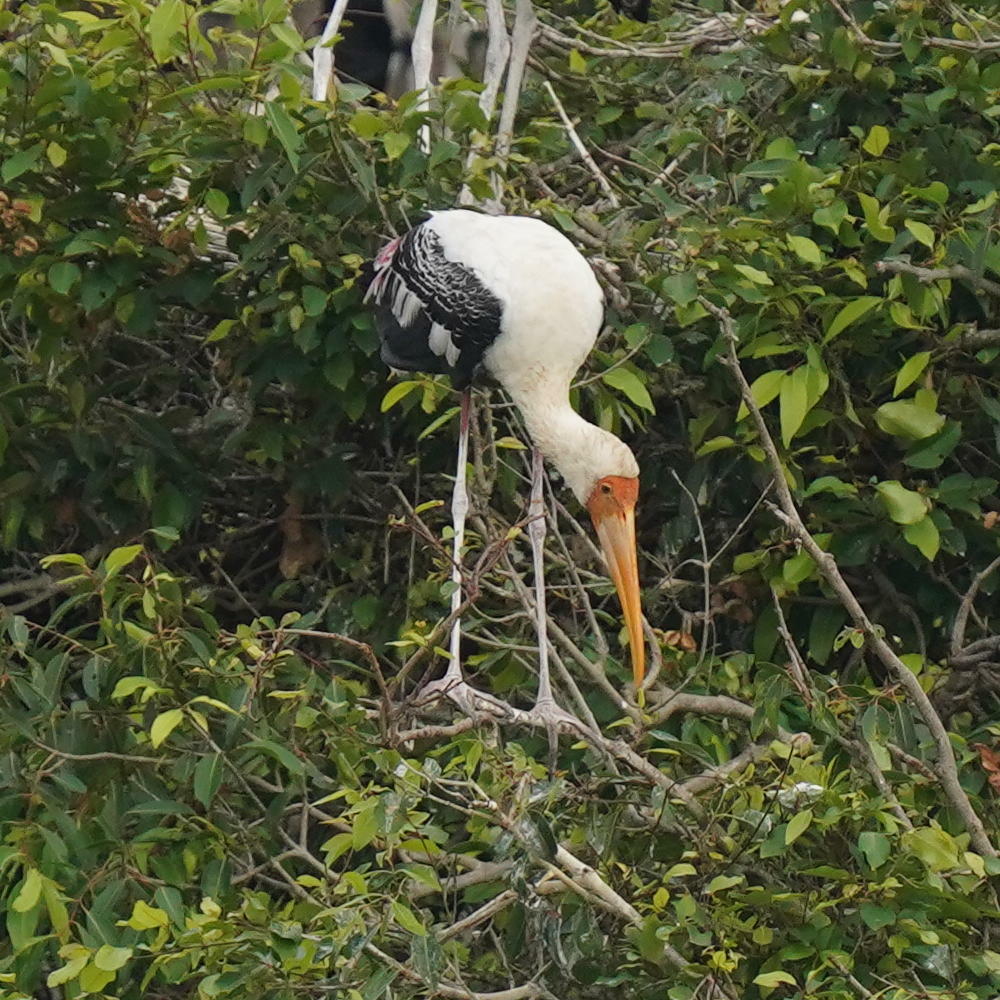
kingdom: Animalia
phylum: Chordata
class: Aves
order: Ciconiiformes
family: Ciconiidae
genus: Mycteria
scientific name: Mycteria leucocephala
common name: Painted stork
